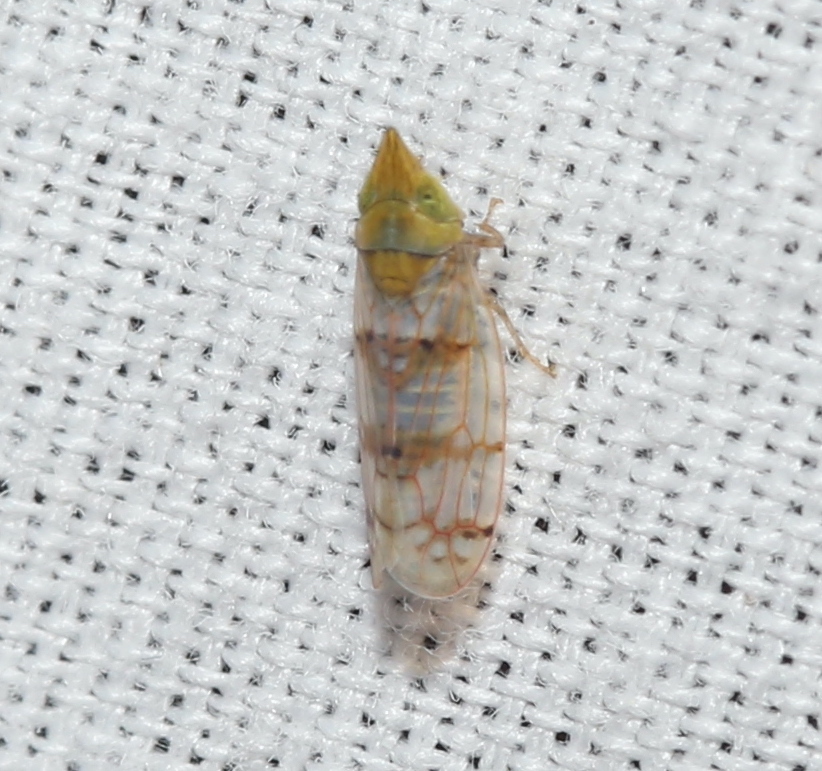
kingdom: Animalia
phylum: Arthropoda
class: Insecta
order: Hemiptera
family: Cicadellidae
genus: Japananus
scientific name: Japananus hyalinus
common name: The japanese maple leafhopper
